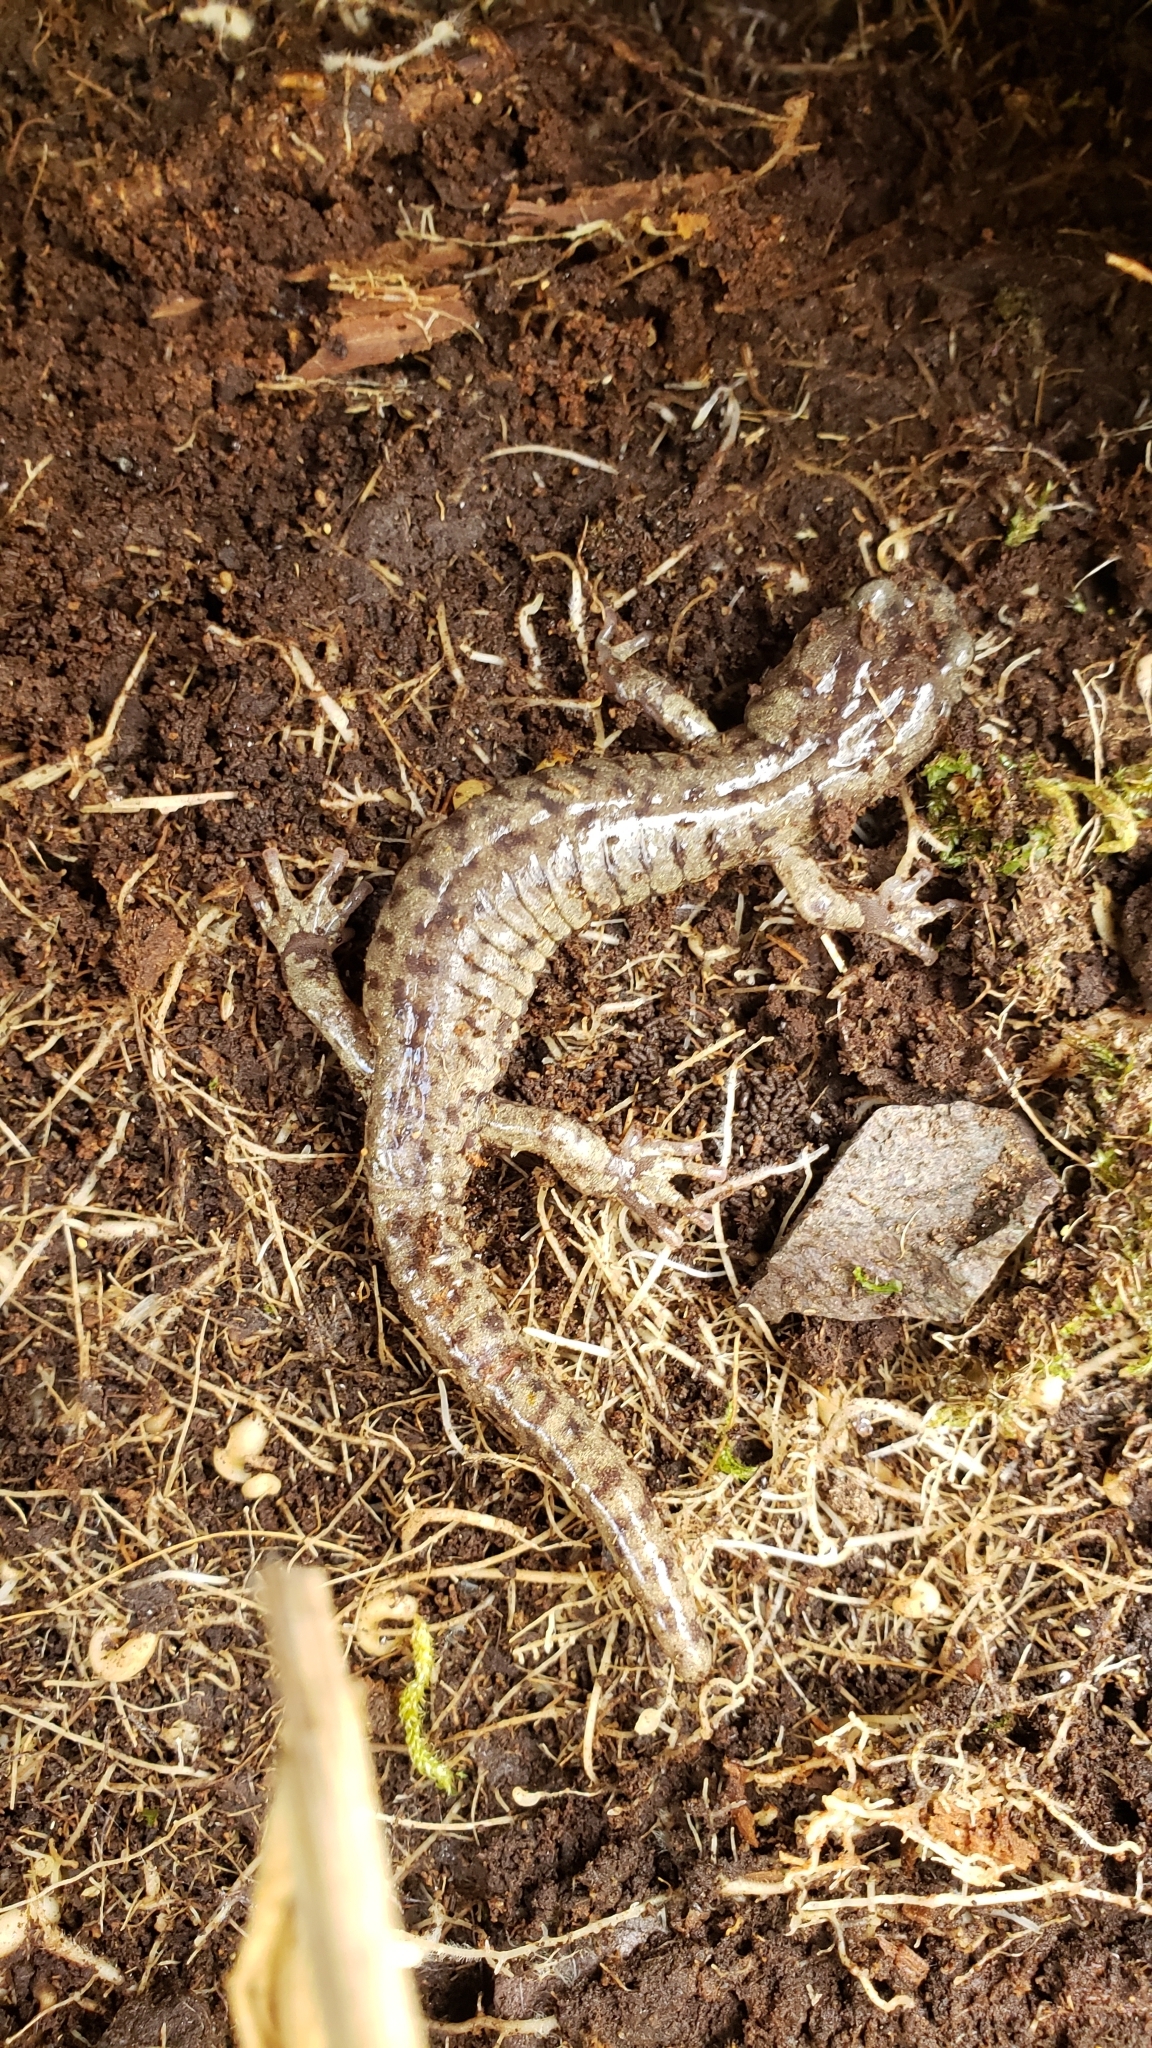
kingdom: Animalia
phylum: Chordata
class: Amphibia
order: Caudata
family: Plethodontidae
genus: Aneides
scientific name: Aneides vagrans
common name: Wandering salamander
